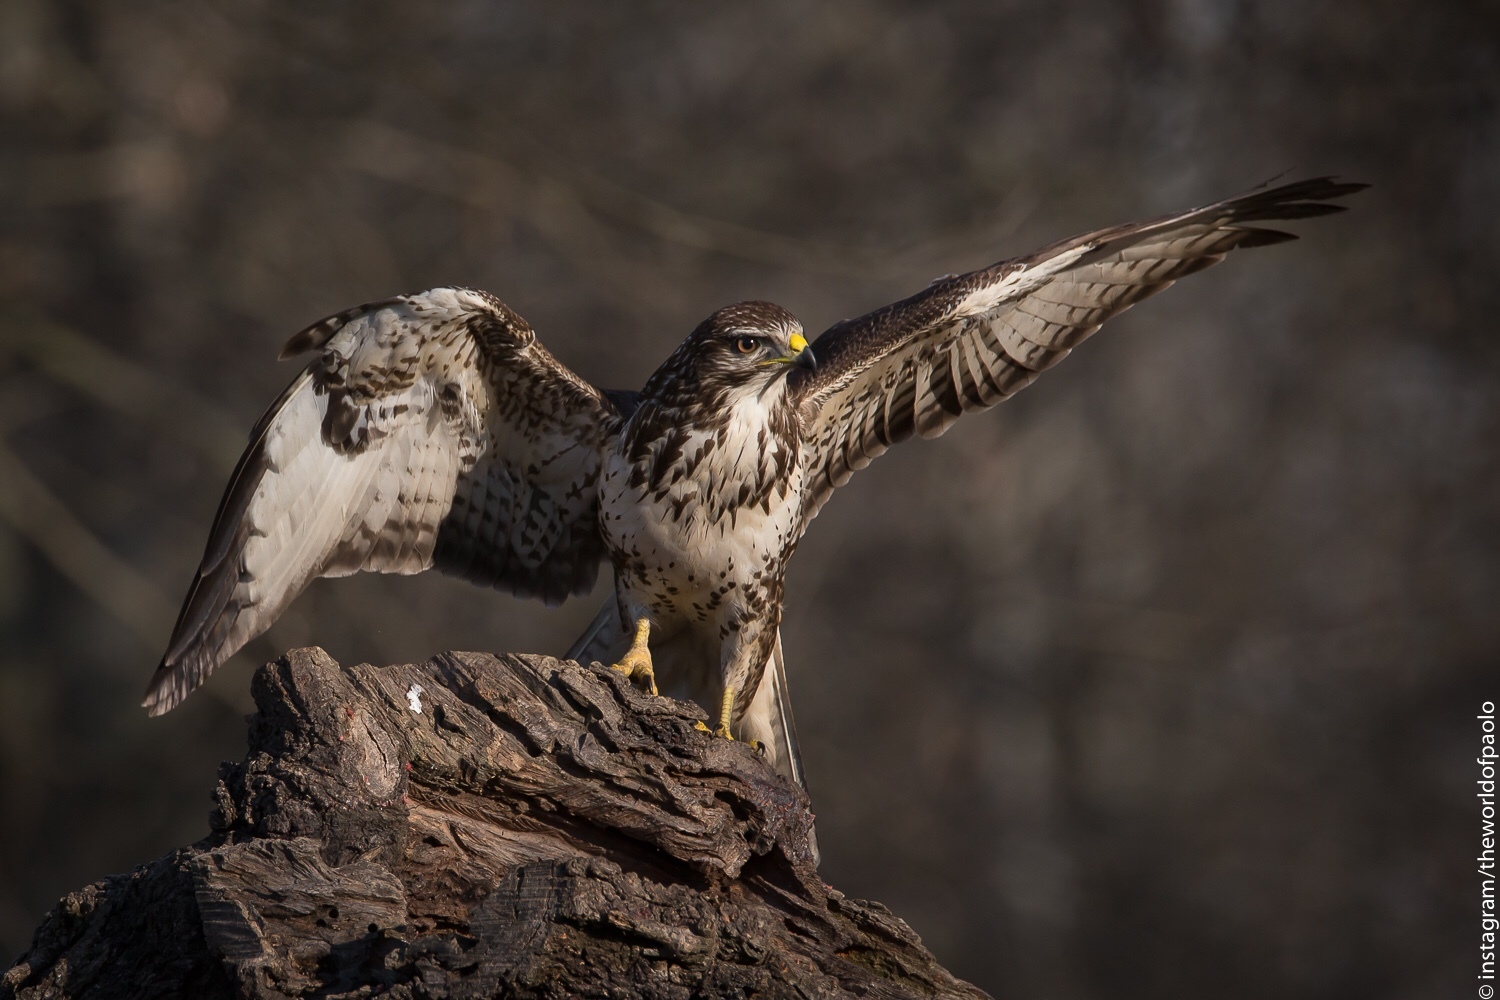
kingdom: Animalia
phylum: Chordata
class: Aves
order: Accipitriformes
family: Accipitridae
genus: Buteo
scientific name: Buteo buteo
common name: Common buzzard
